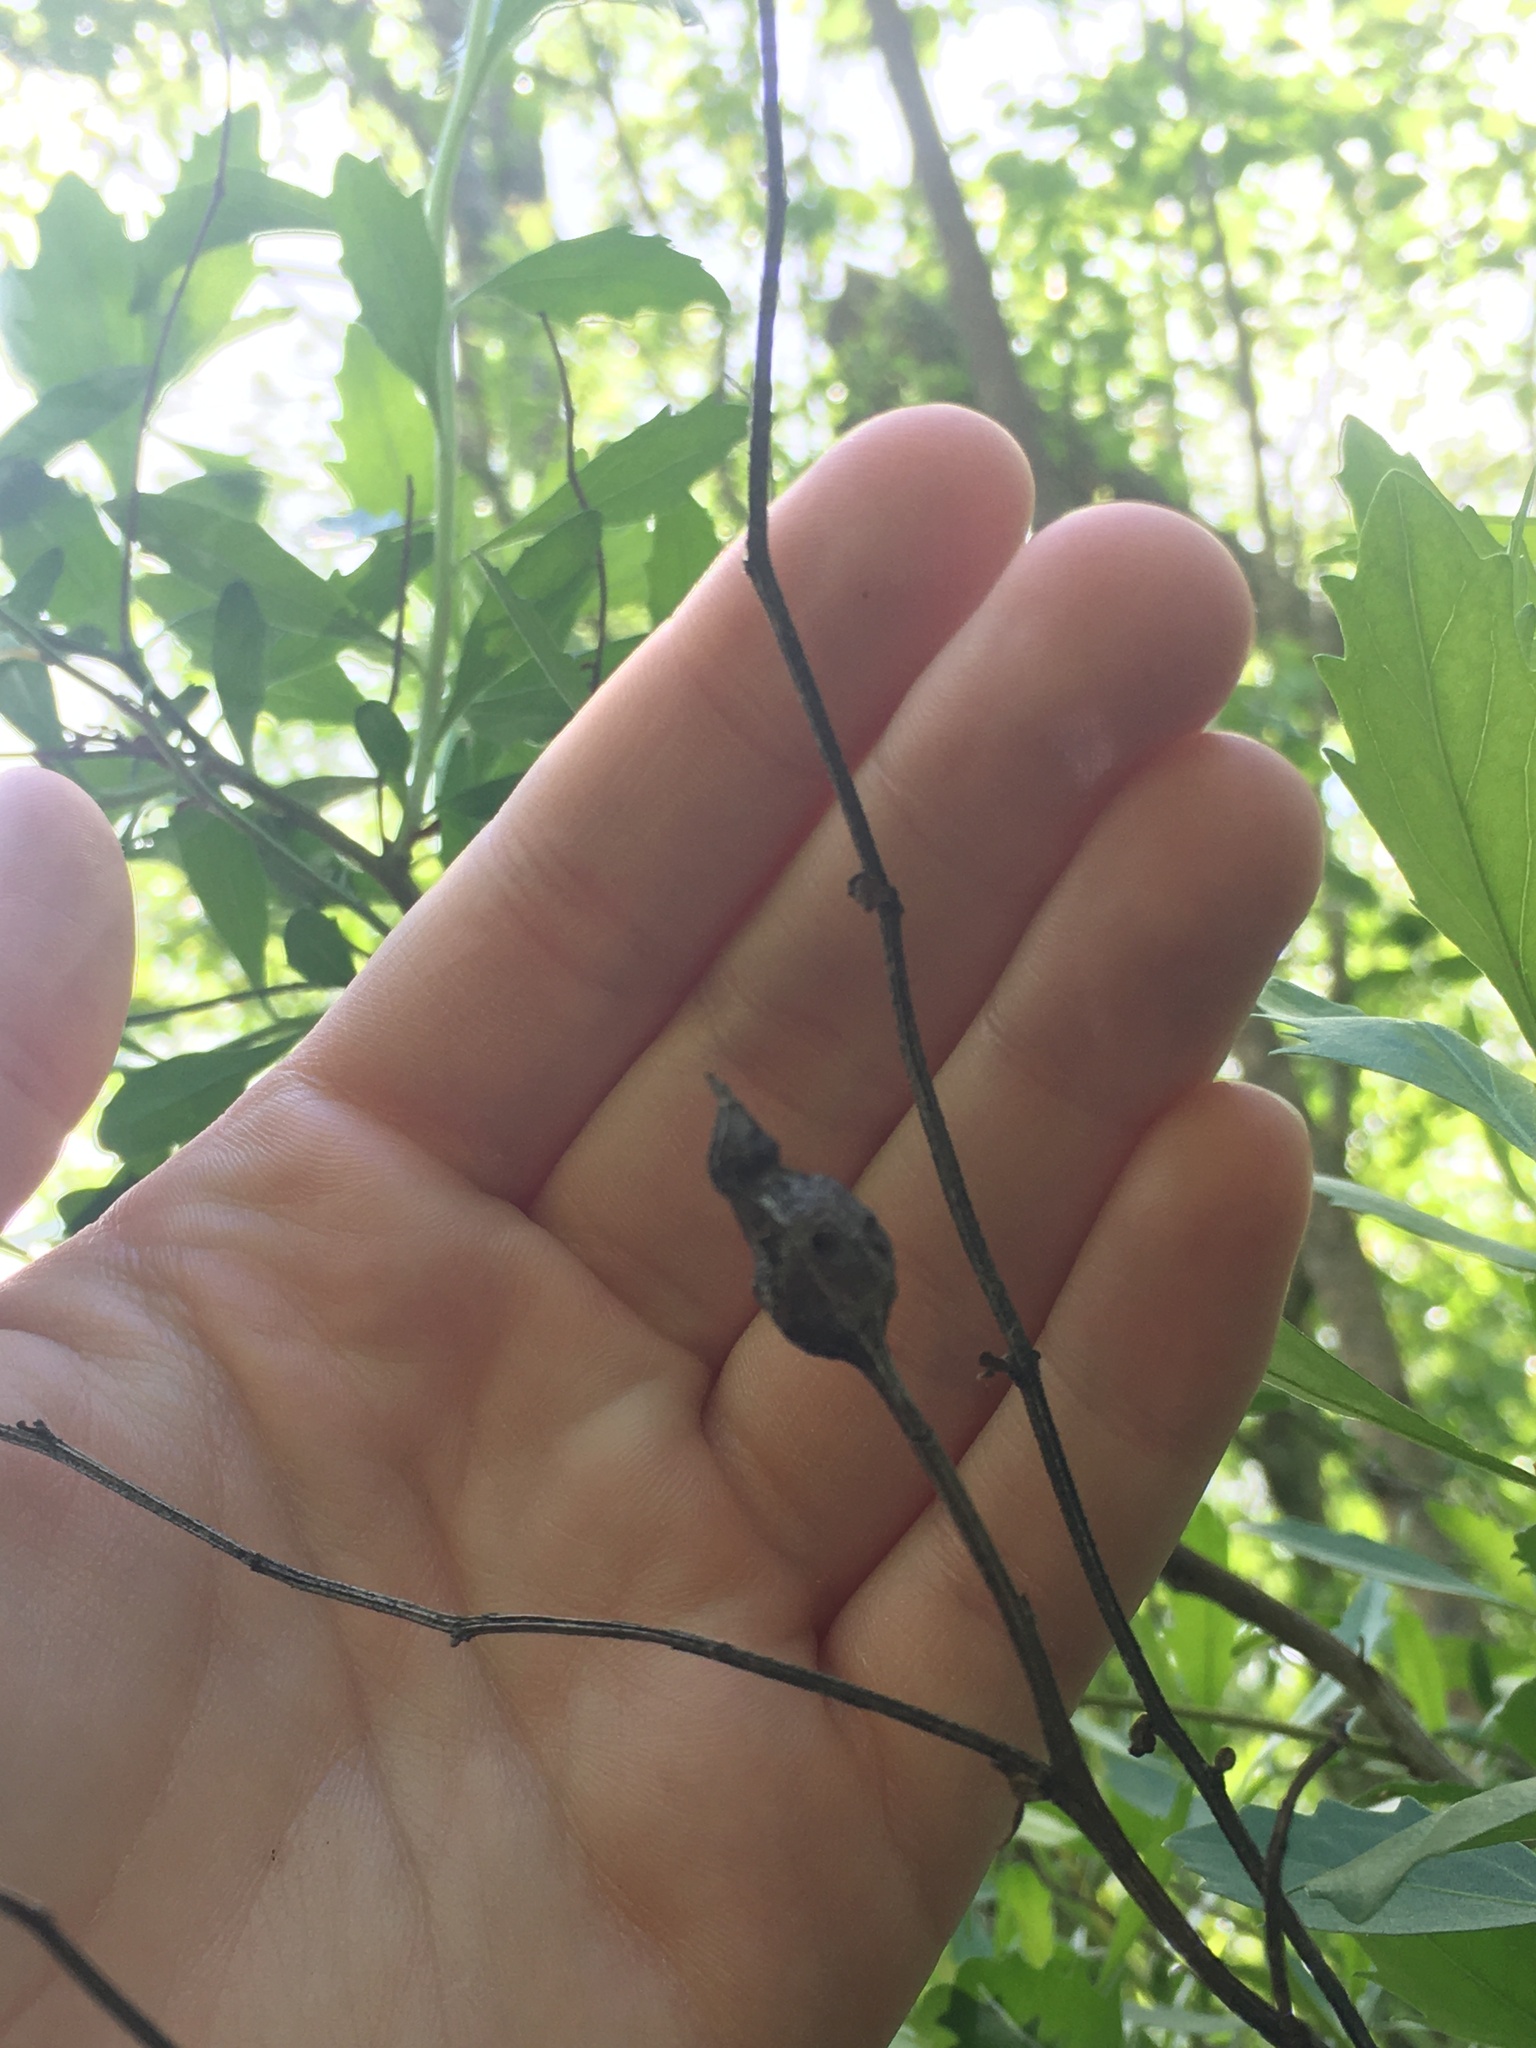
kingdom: Animalia
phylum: Arthropoda
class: Insecta
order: Diptera
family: Cecidomyiidae
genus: Neolasioptera
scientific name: Neolasioptera lathami
